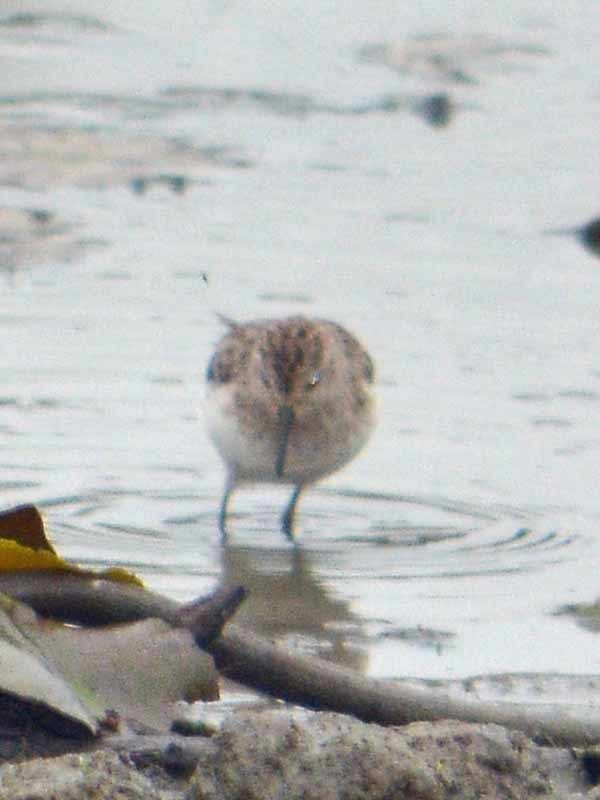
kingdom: Animalia
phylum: Chordata
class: Aves
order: Charadriiformes
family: Scolopacidae
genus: Calidris
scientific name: Calidris minutilla
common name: Least sandpiper
